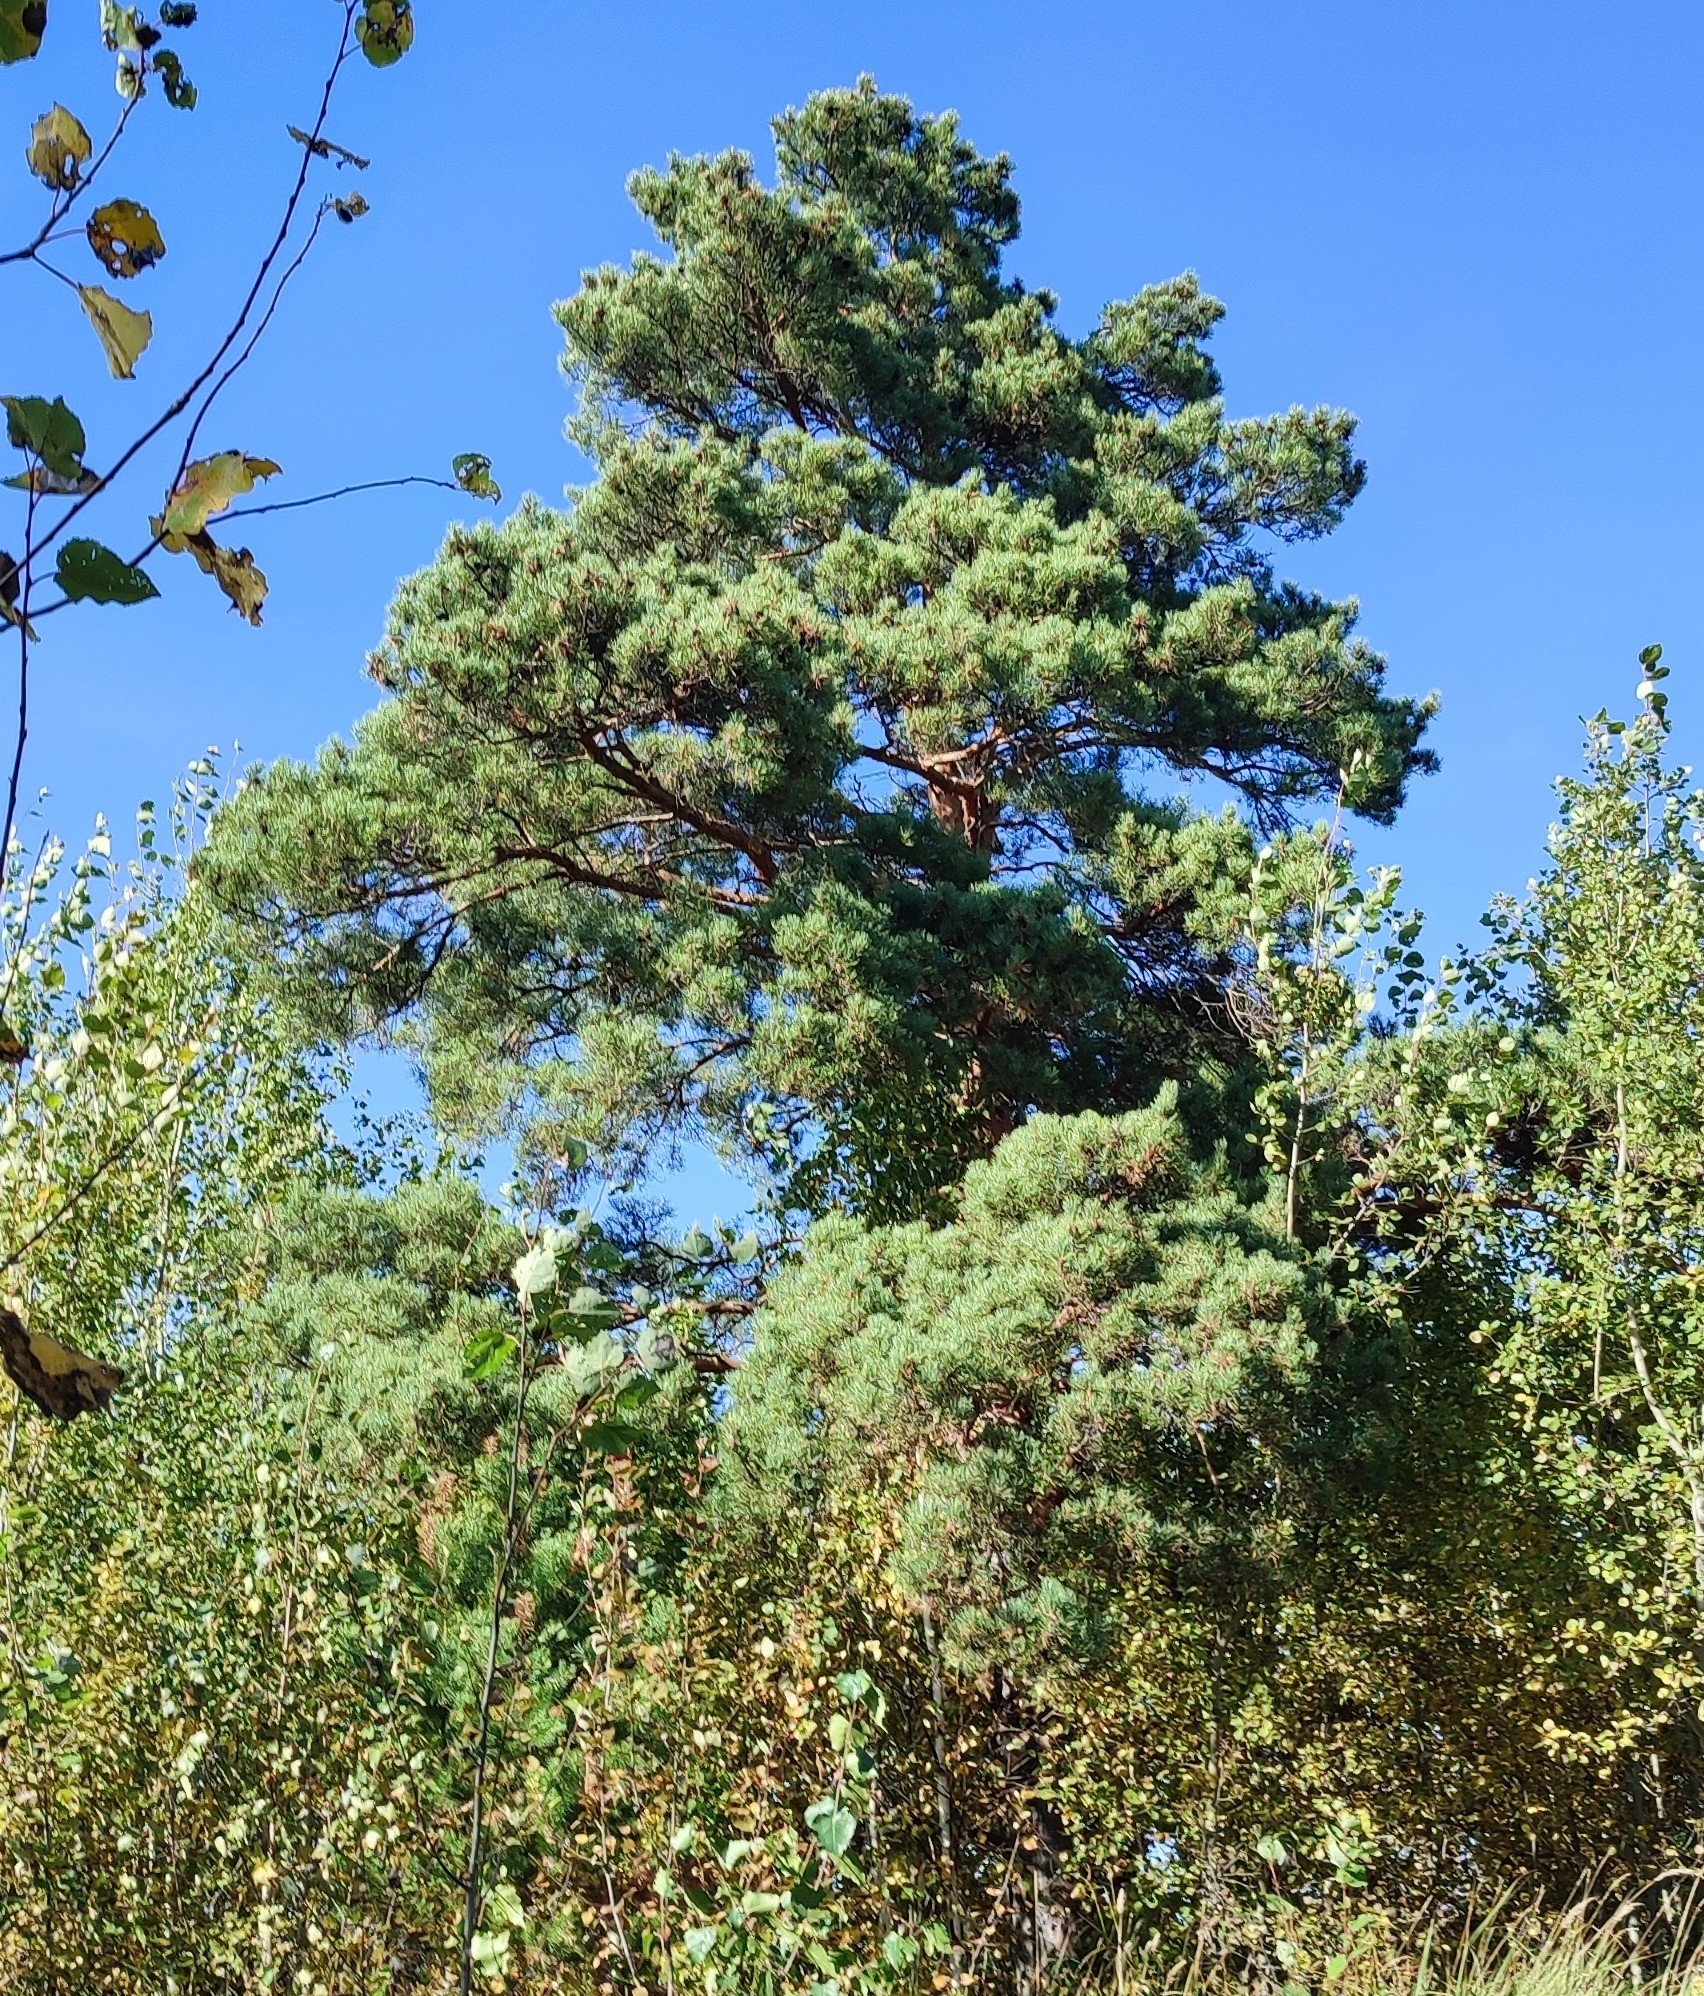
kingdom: Plantae
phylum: Tracheophyta
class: Pinopsida
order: Pinales
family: Pinaceae
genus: Pinus
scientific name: Pinus sylvestris
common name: Scots pine
